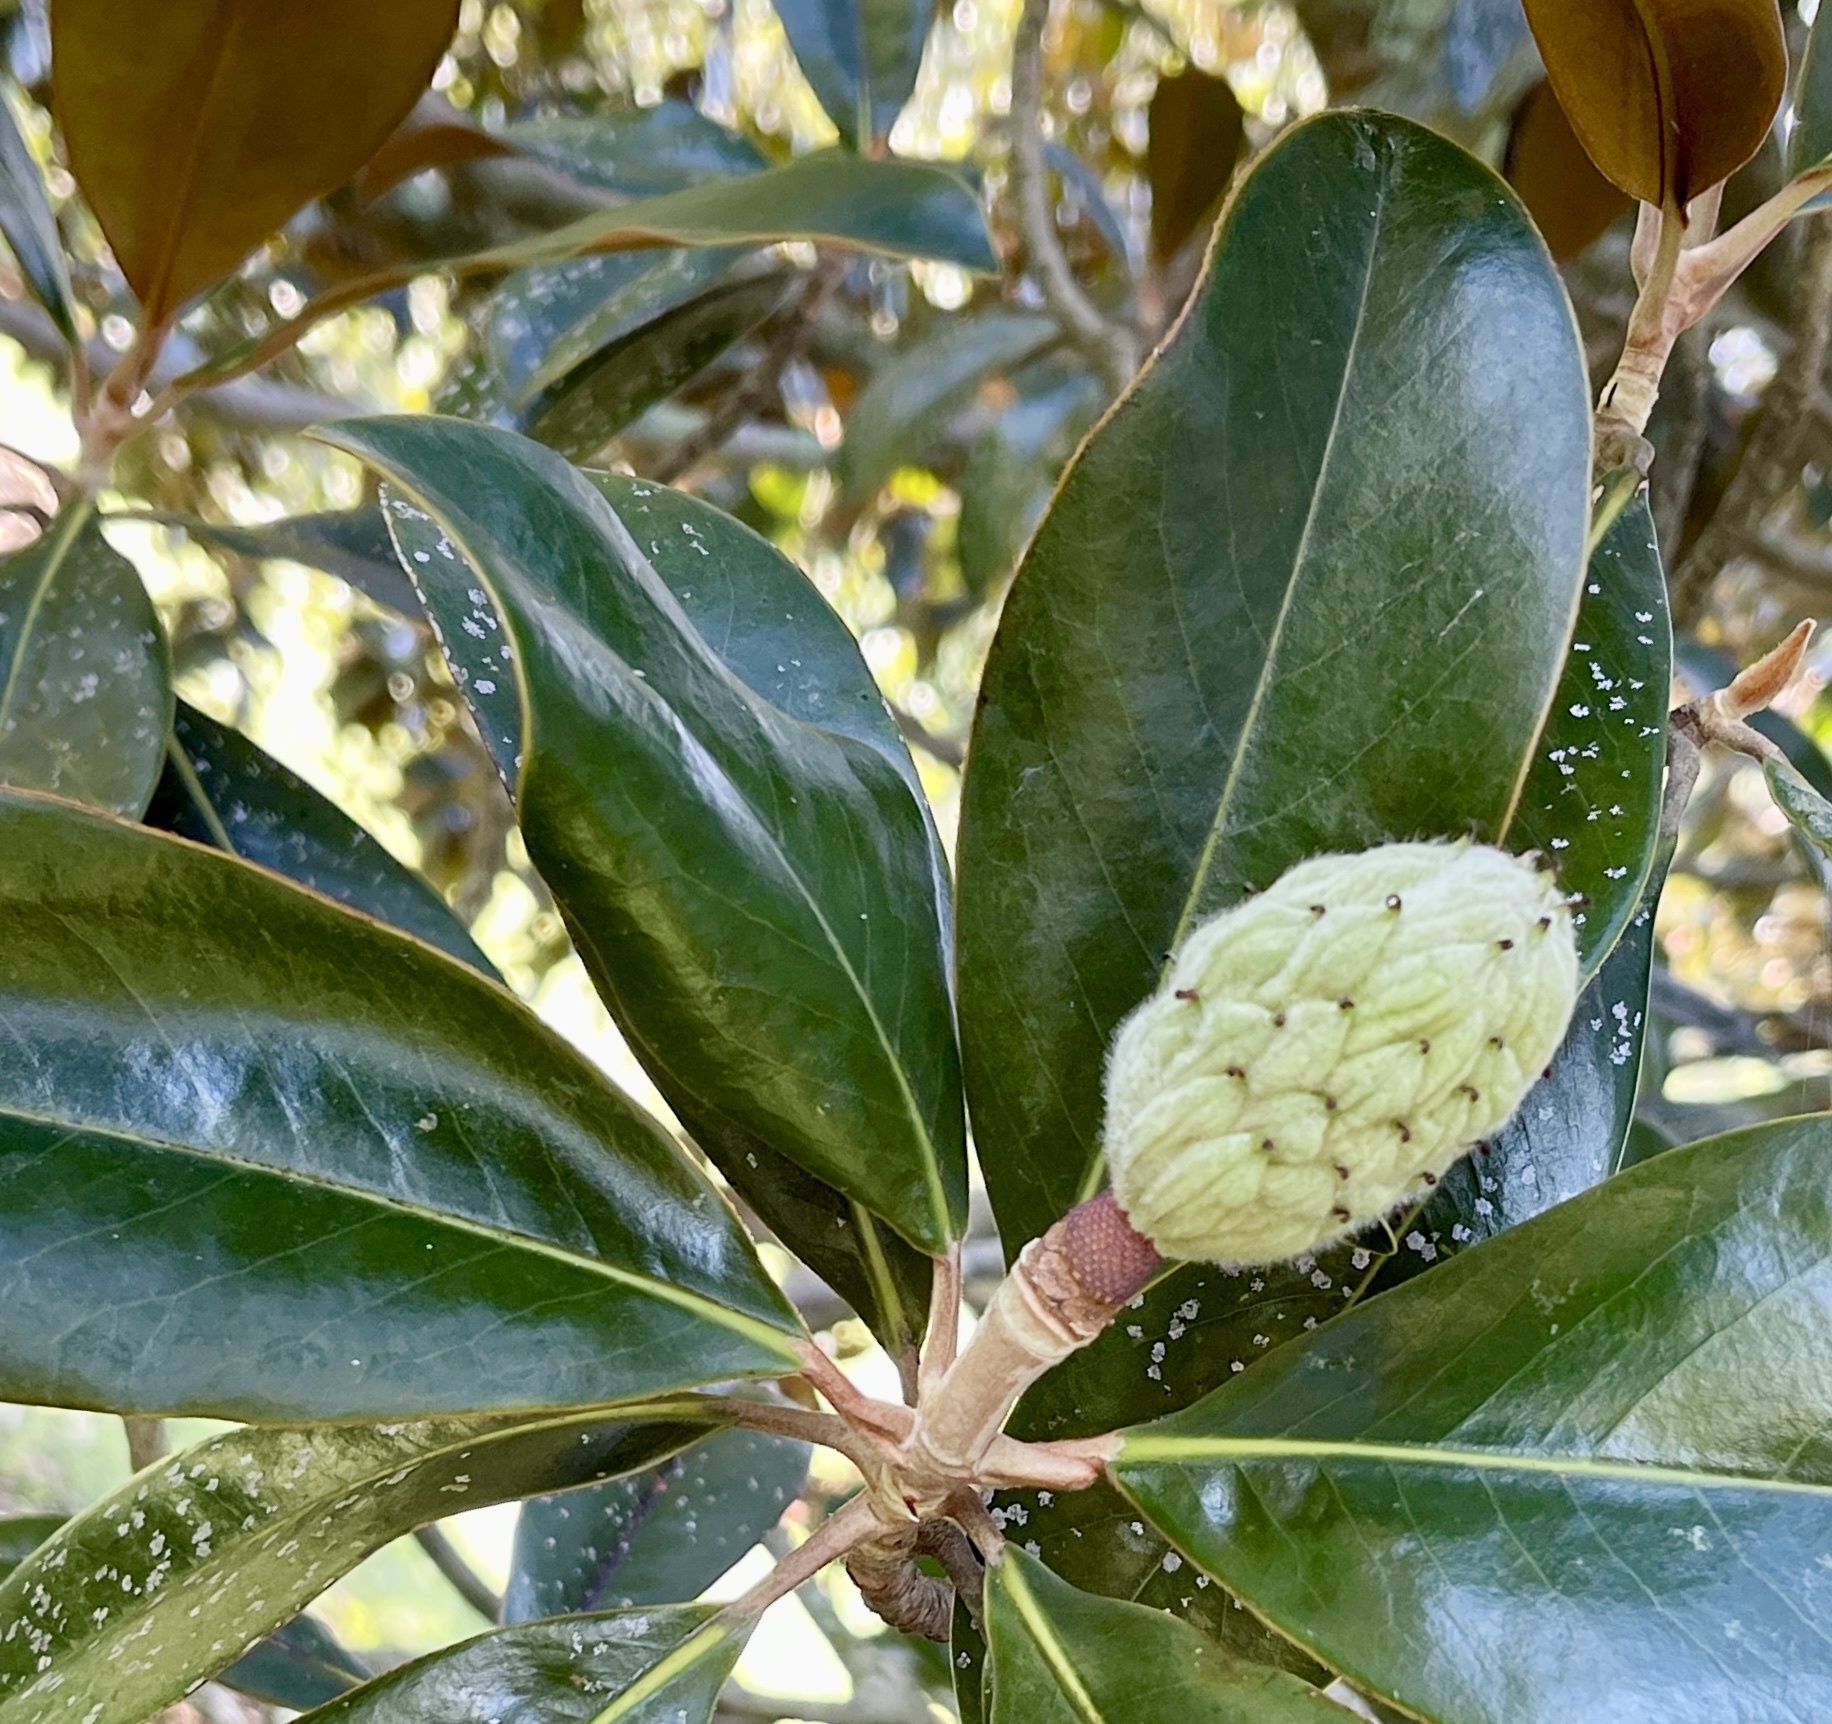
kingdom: Plantae
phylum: Tracheophyta
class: Magnoliopsida
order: Magnoliales
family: Magnoliaceae
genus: Magnolia
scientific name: Magnolia grandiflora
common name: Southern magnolia
